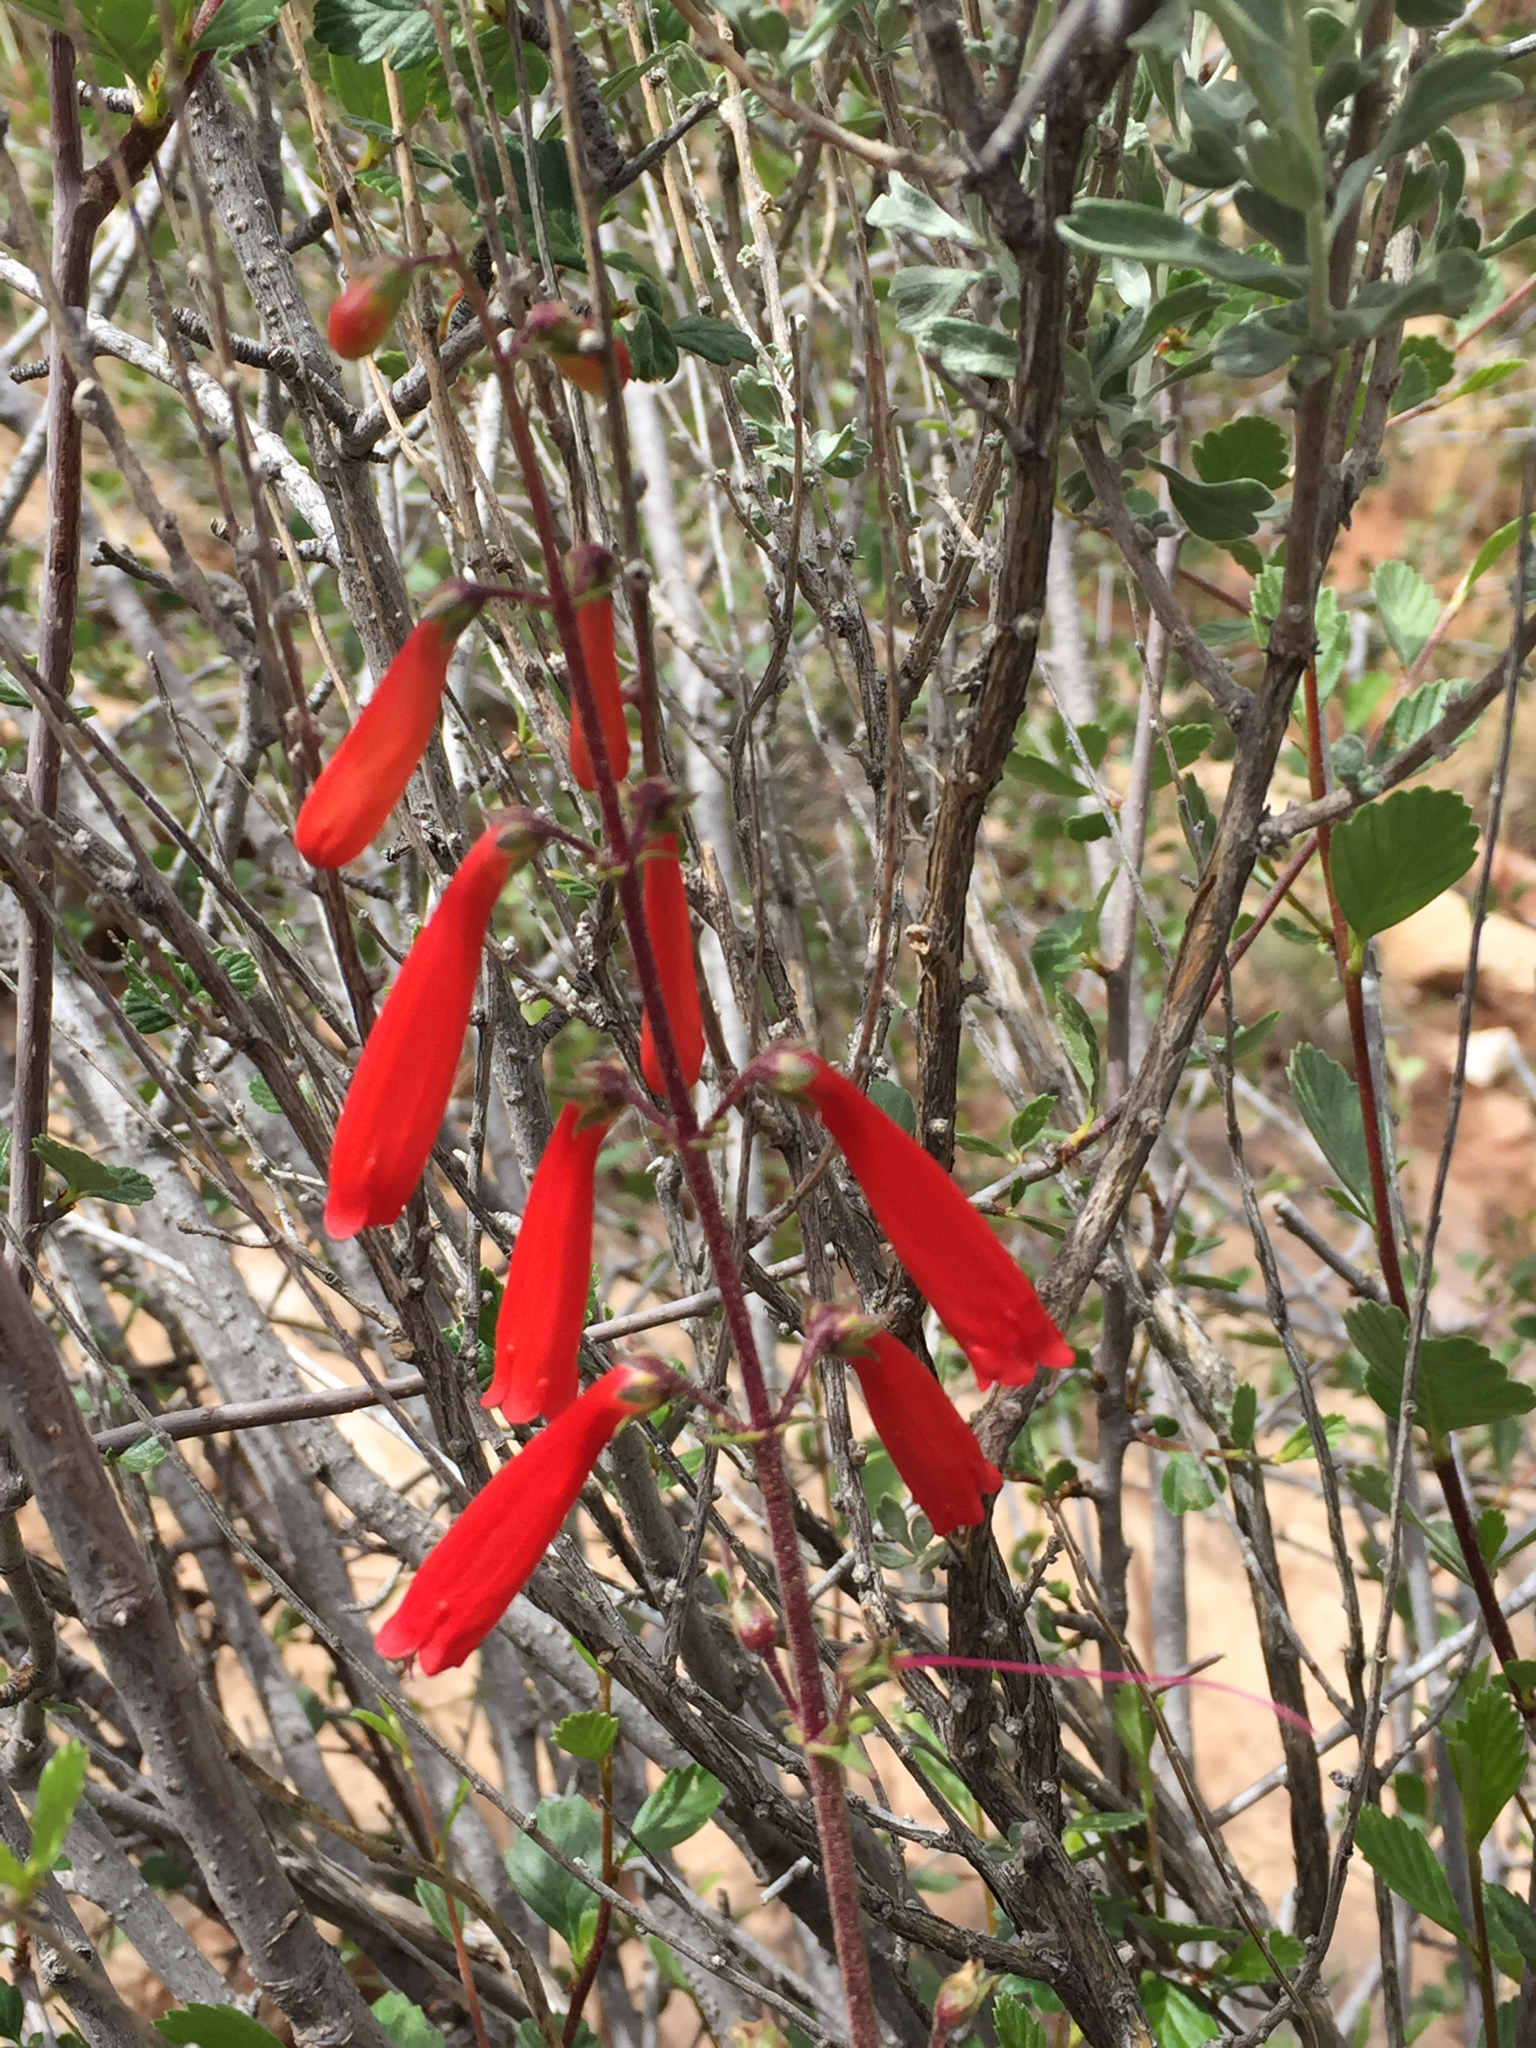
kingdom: Plantae
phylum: Tracheophyta
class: Magnoliopsida
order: Lamiales
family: Plantaginaceae
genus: Penstemon
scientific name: Penstemon eatonii
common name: Eaton's penstemon
